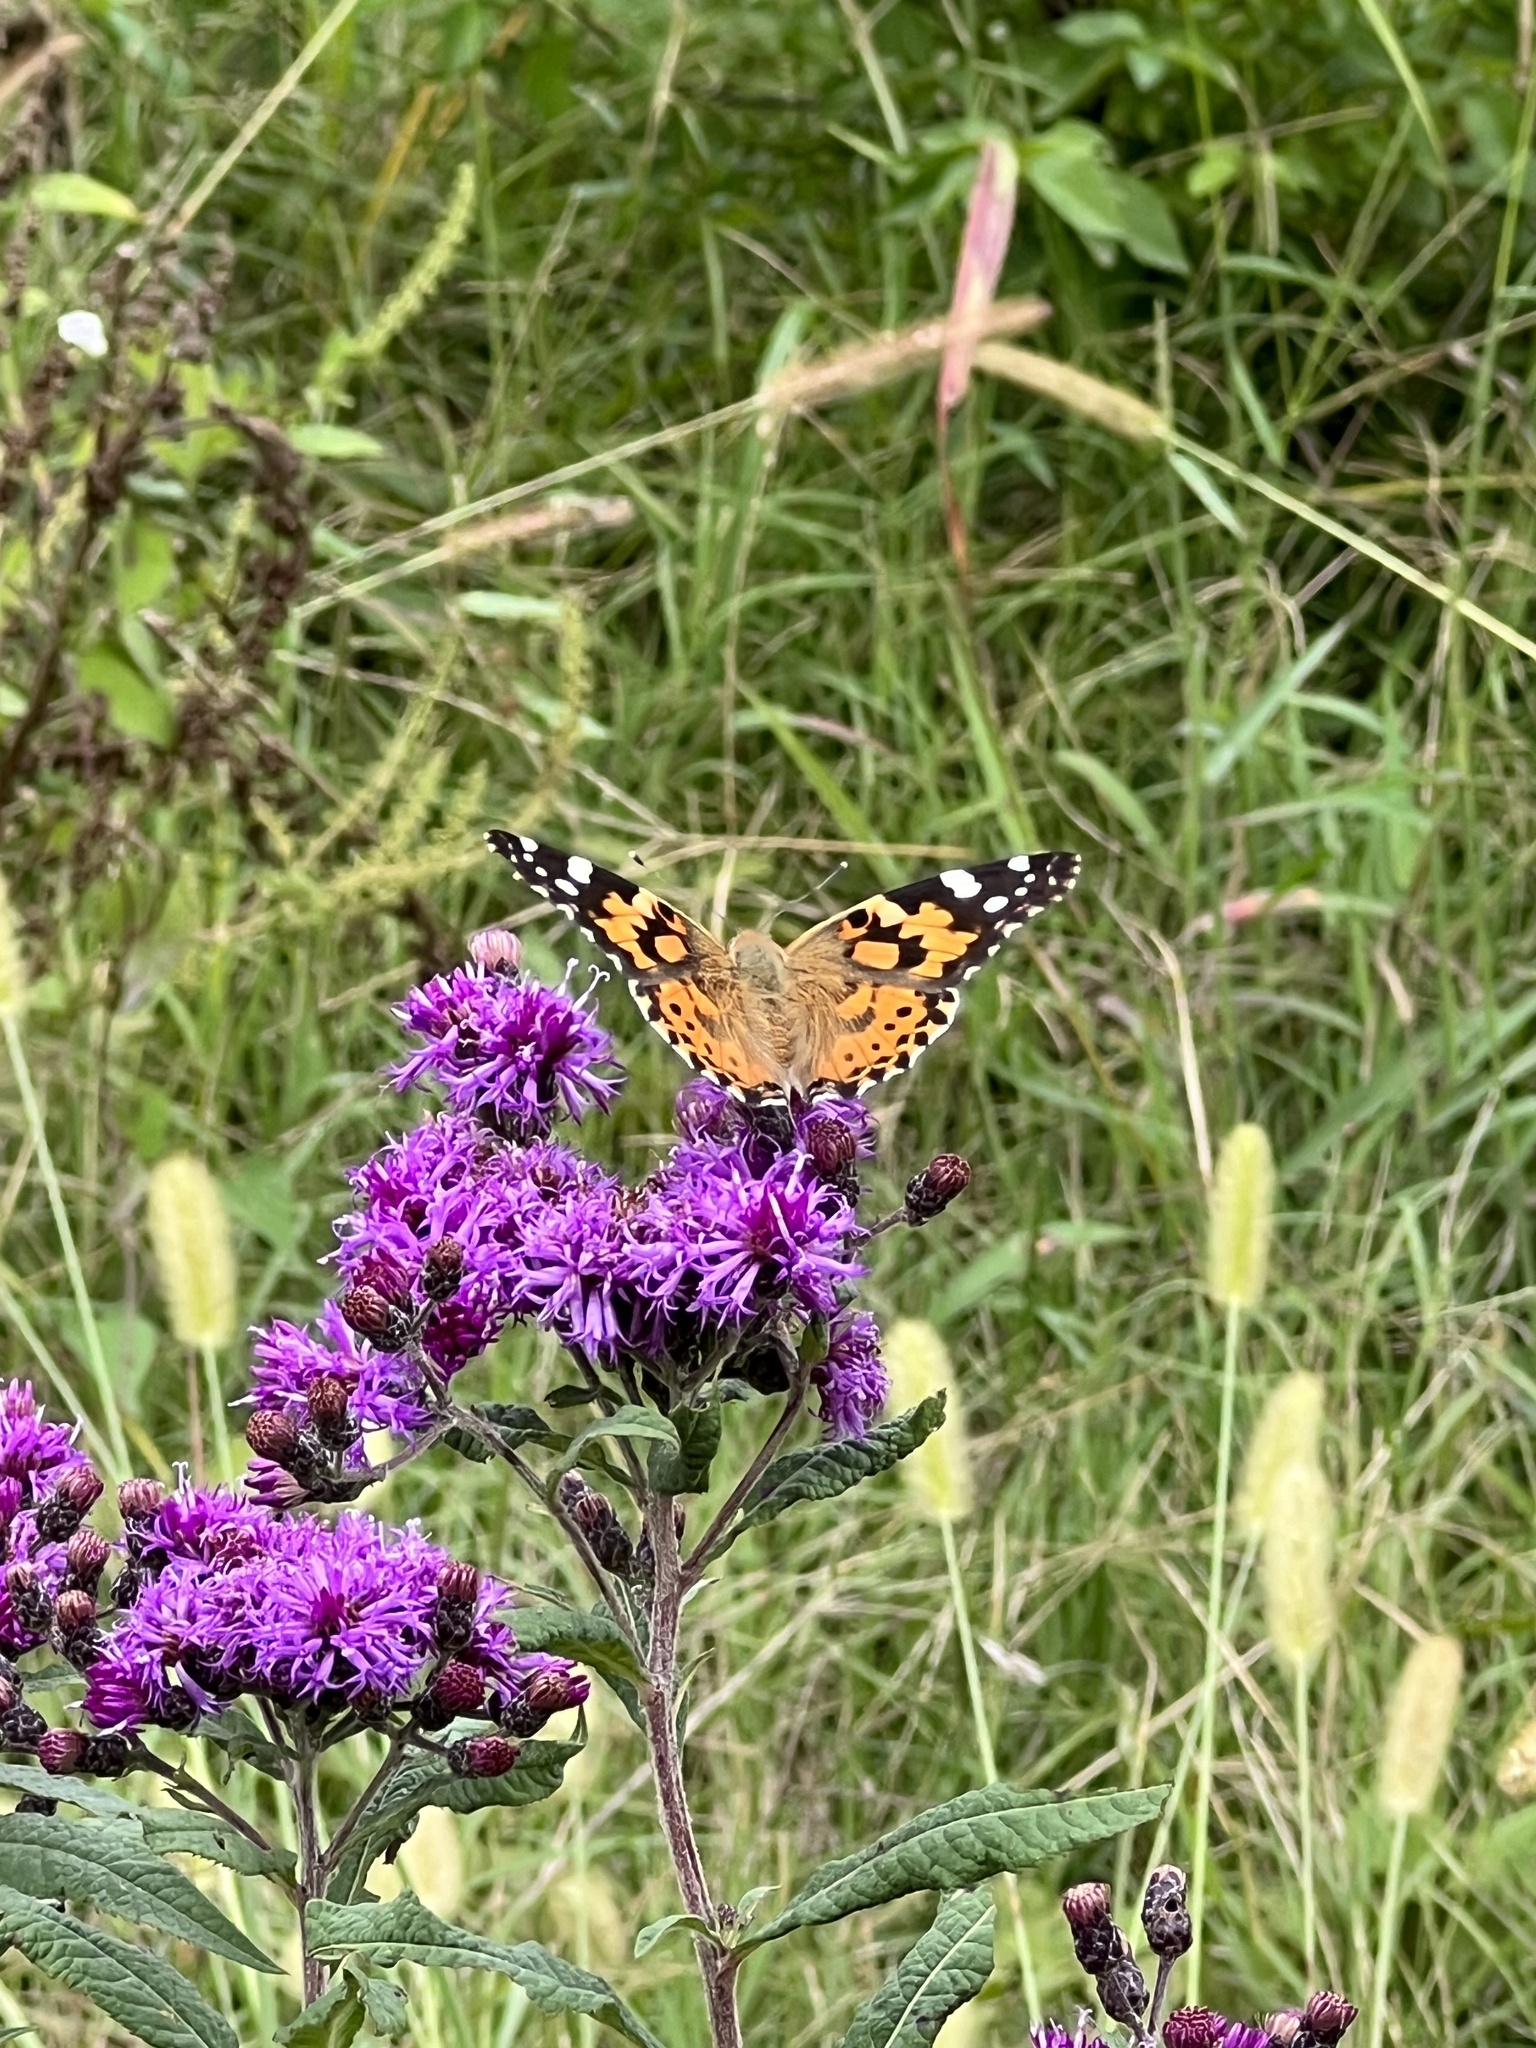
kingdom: Animalia
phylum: Arthropoda
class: Insecta
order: Lepidoptera
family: Nymphalidae
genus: Vanessa
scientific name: Vanessa cardui
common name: Painted lady
